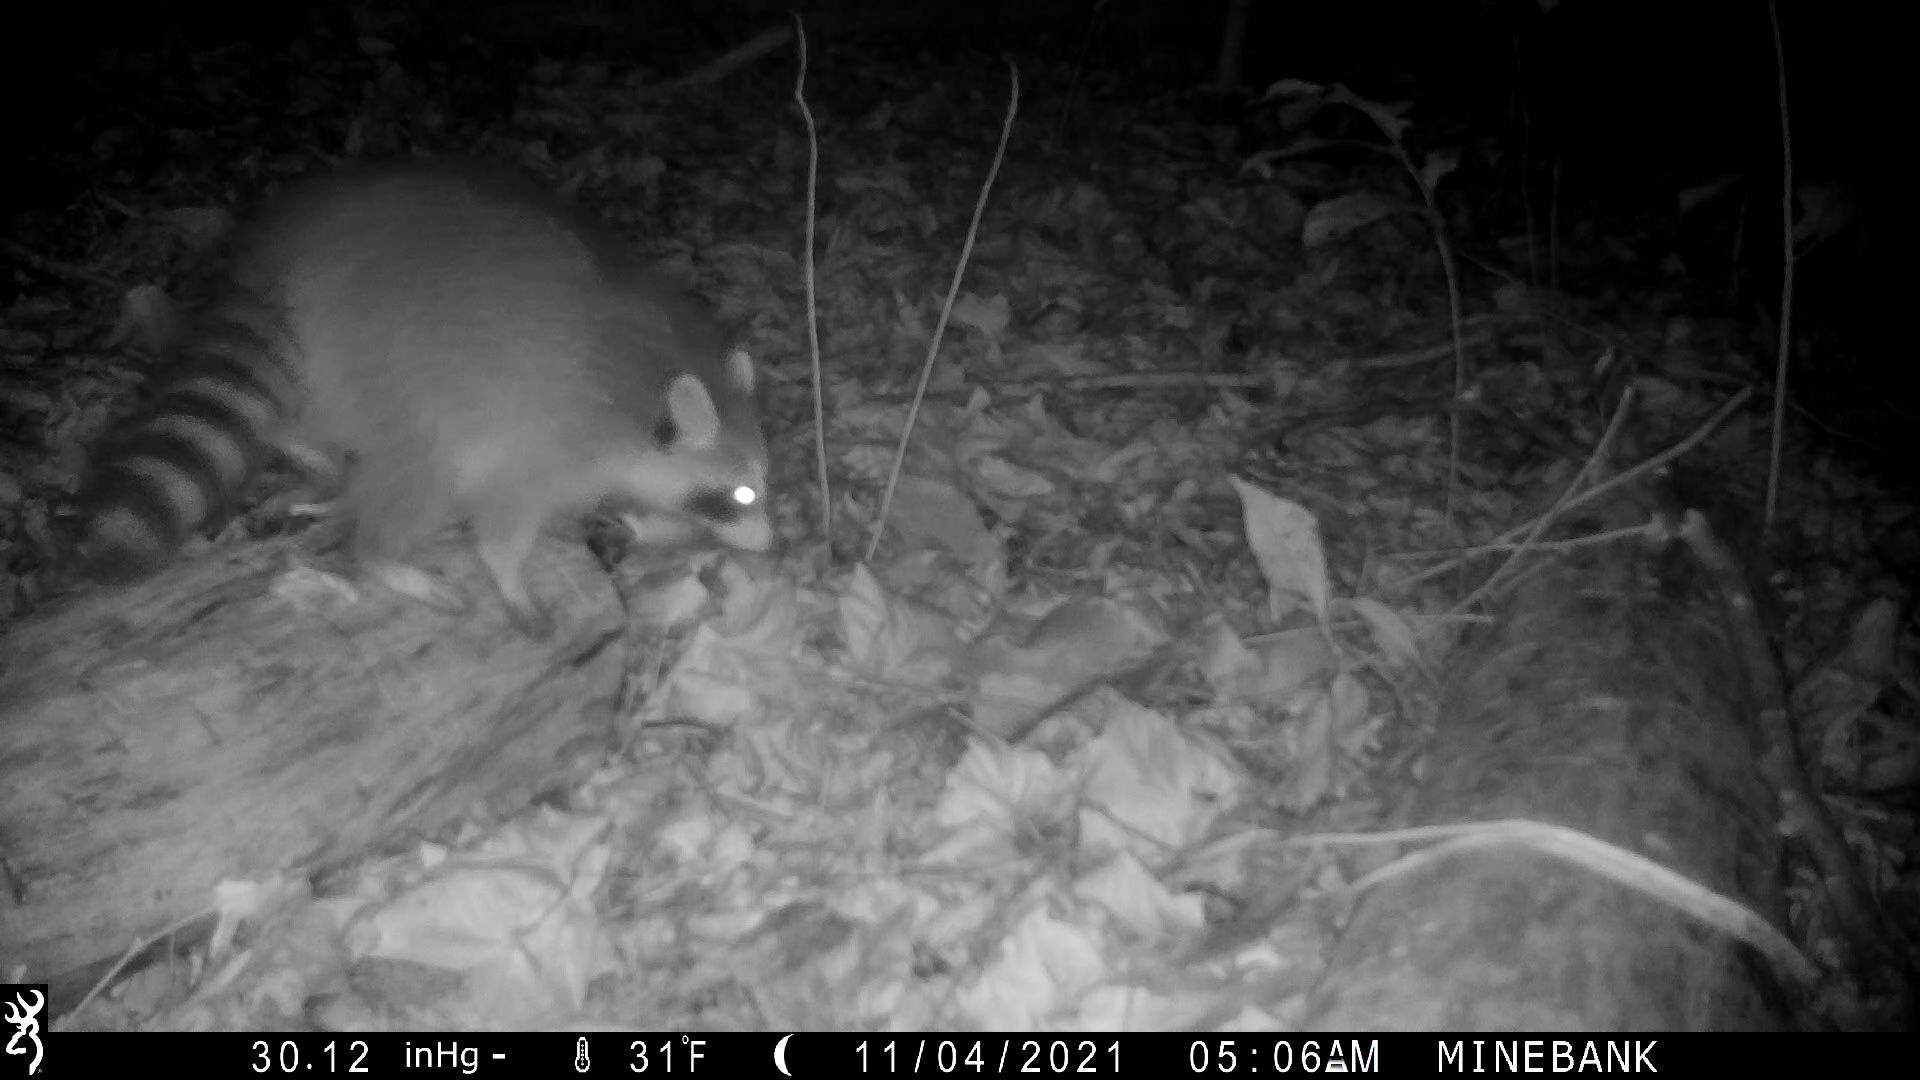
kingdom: Animalia
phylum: Chordata
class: Mammalia
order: Carnivora
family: Procyonidae
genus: Procyon
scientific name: Procyon lotor
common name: Raccoon
